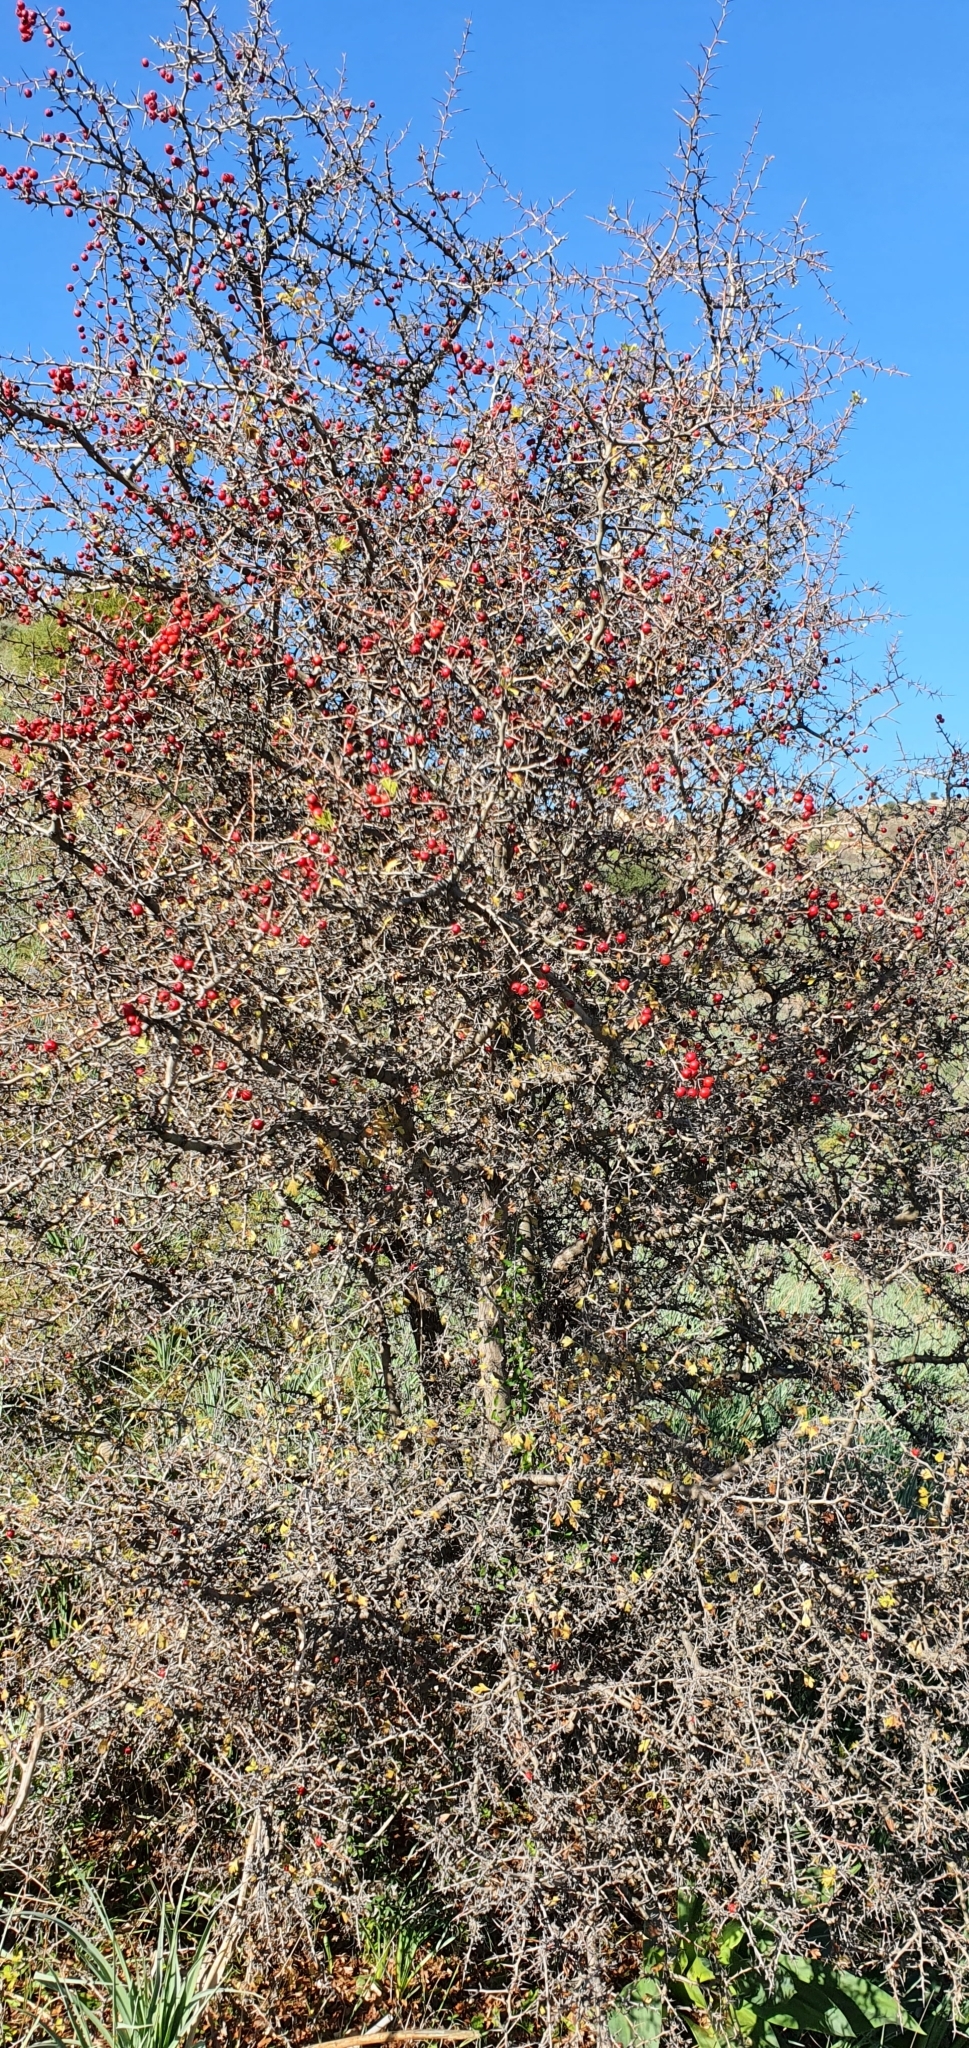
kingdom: Plantae
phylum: Tracheophyta
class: Magnoliopsida
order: Rosales
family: Rosaceae
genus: Crataegus
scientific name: Crataegus monogyna
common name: Hawthorn
